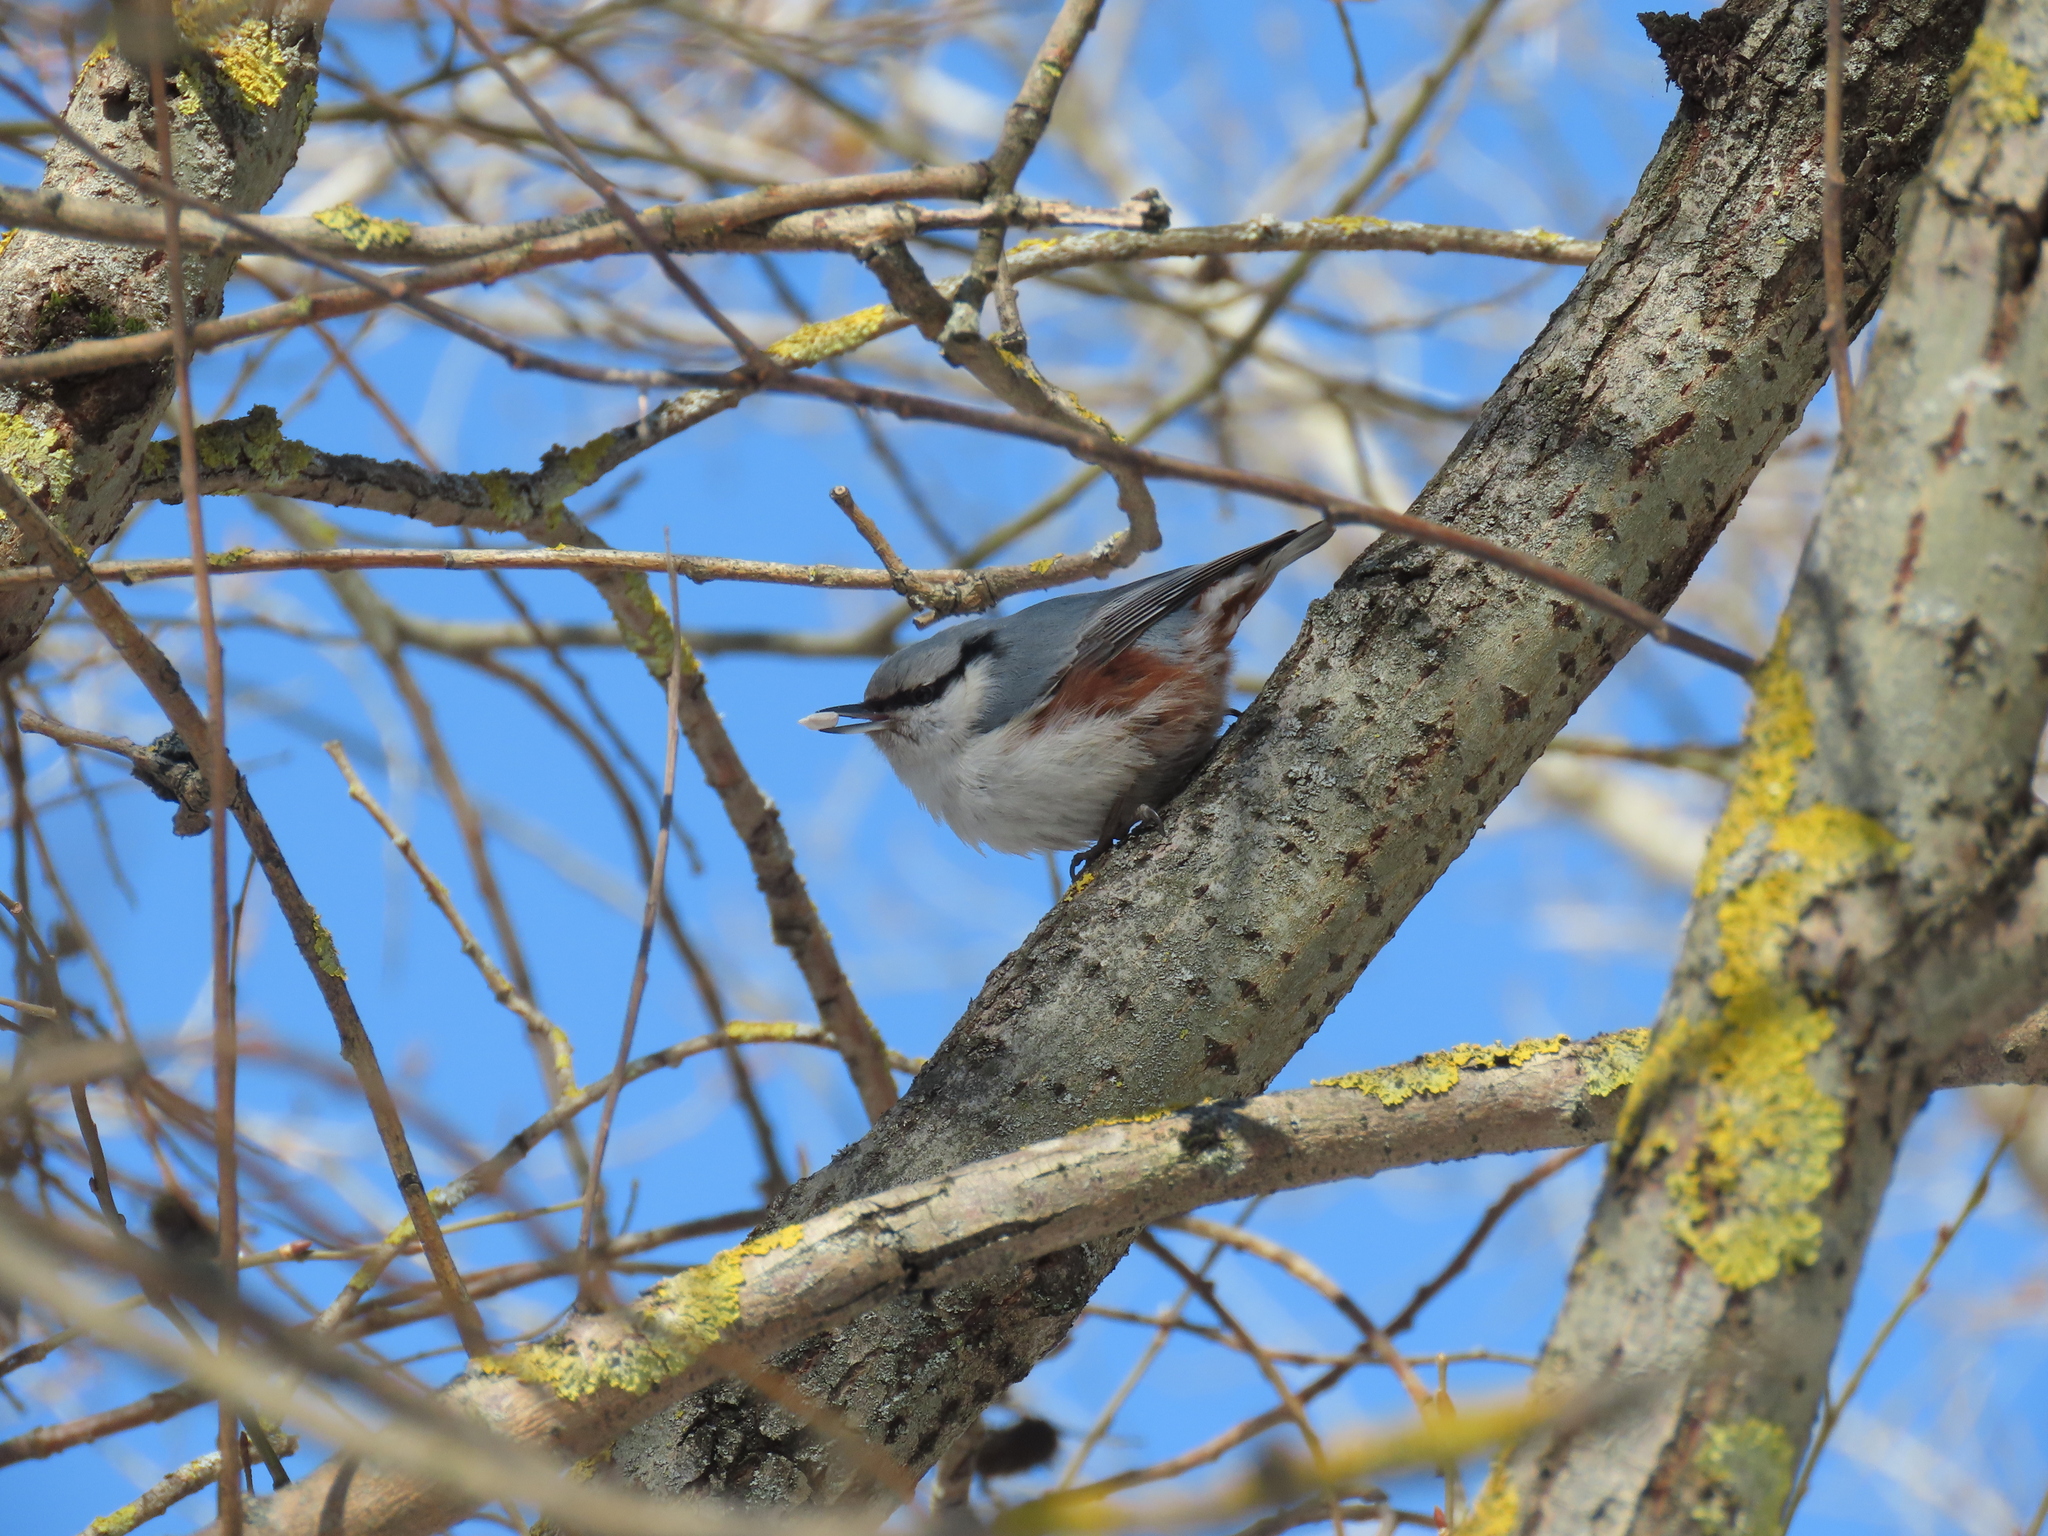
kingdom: Animalia
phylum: Chordata
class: Aves
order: Passeriformes
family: Sittidae
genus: Sitta
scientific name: Sitta europaea
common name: Eurasian nuthatch
